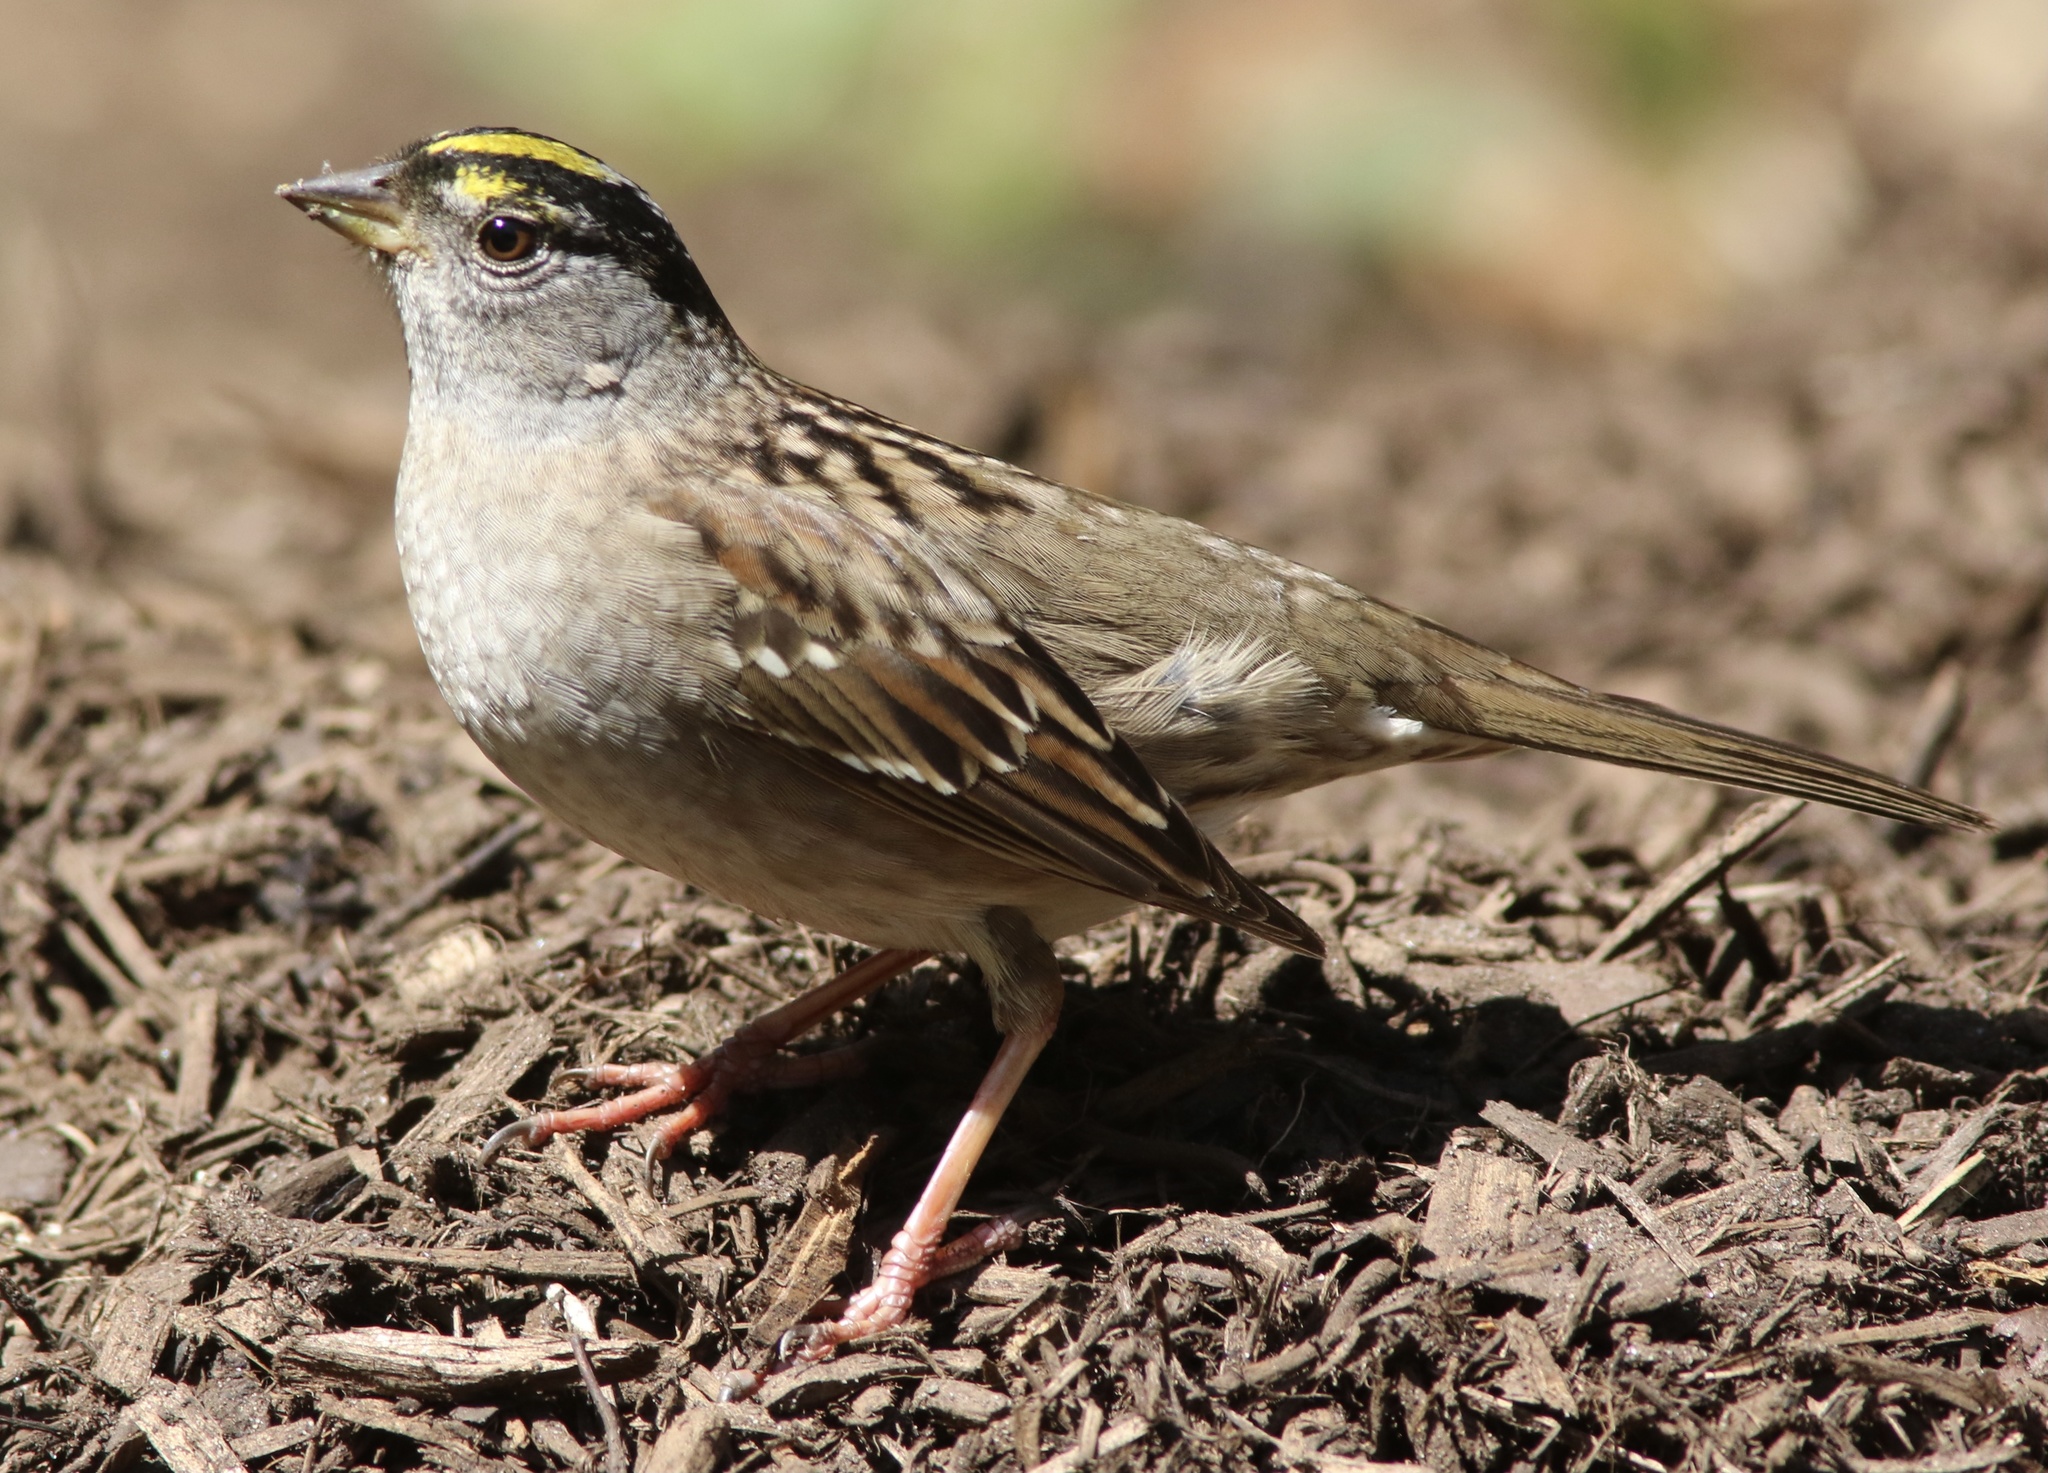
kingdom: Animalia
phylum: Chordata
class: Aves
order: Passeriformes
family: Passerellidae
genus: Zonotrichia
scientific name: Zonotrichia atricapilla
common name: Golden-crowned sparrow
